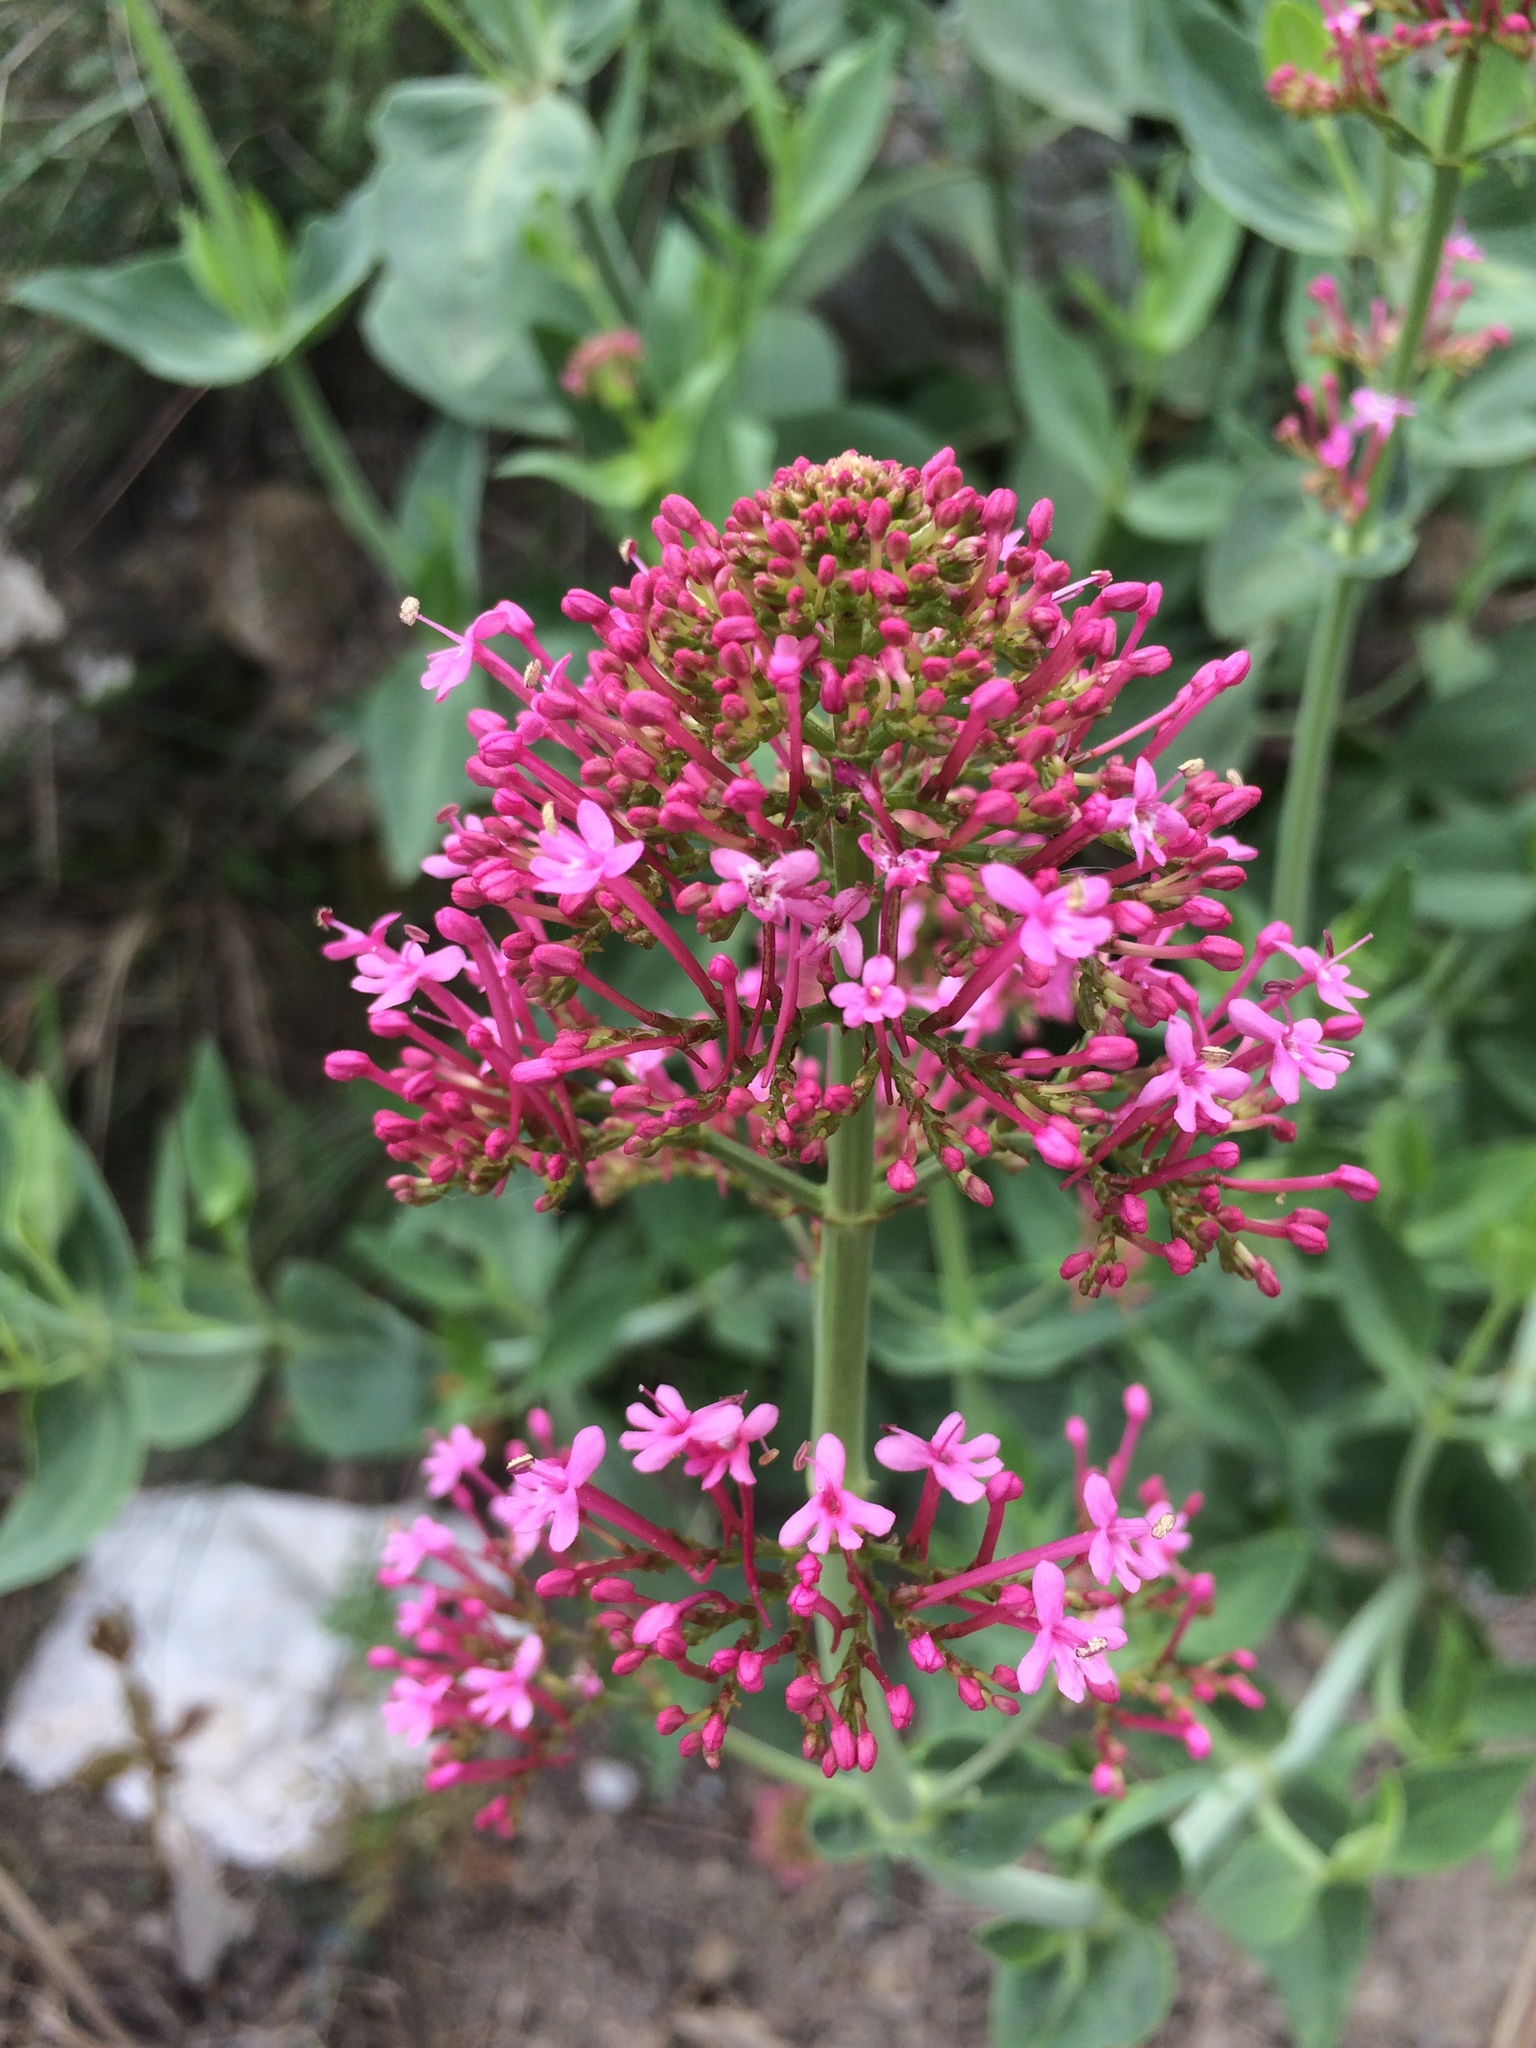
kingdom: Plantae
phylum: Tracheophyta
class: Magnoliopsida
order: Dipsacales
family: Caprifoliaceae
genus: Centranthus
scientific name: Centranthus ruber
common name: Red valerian
